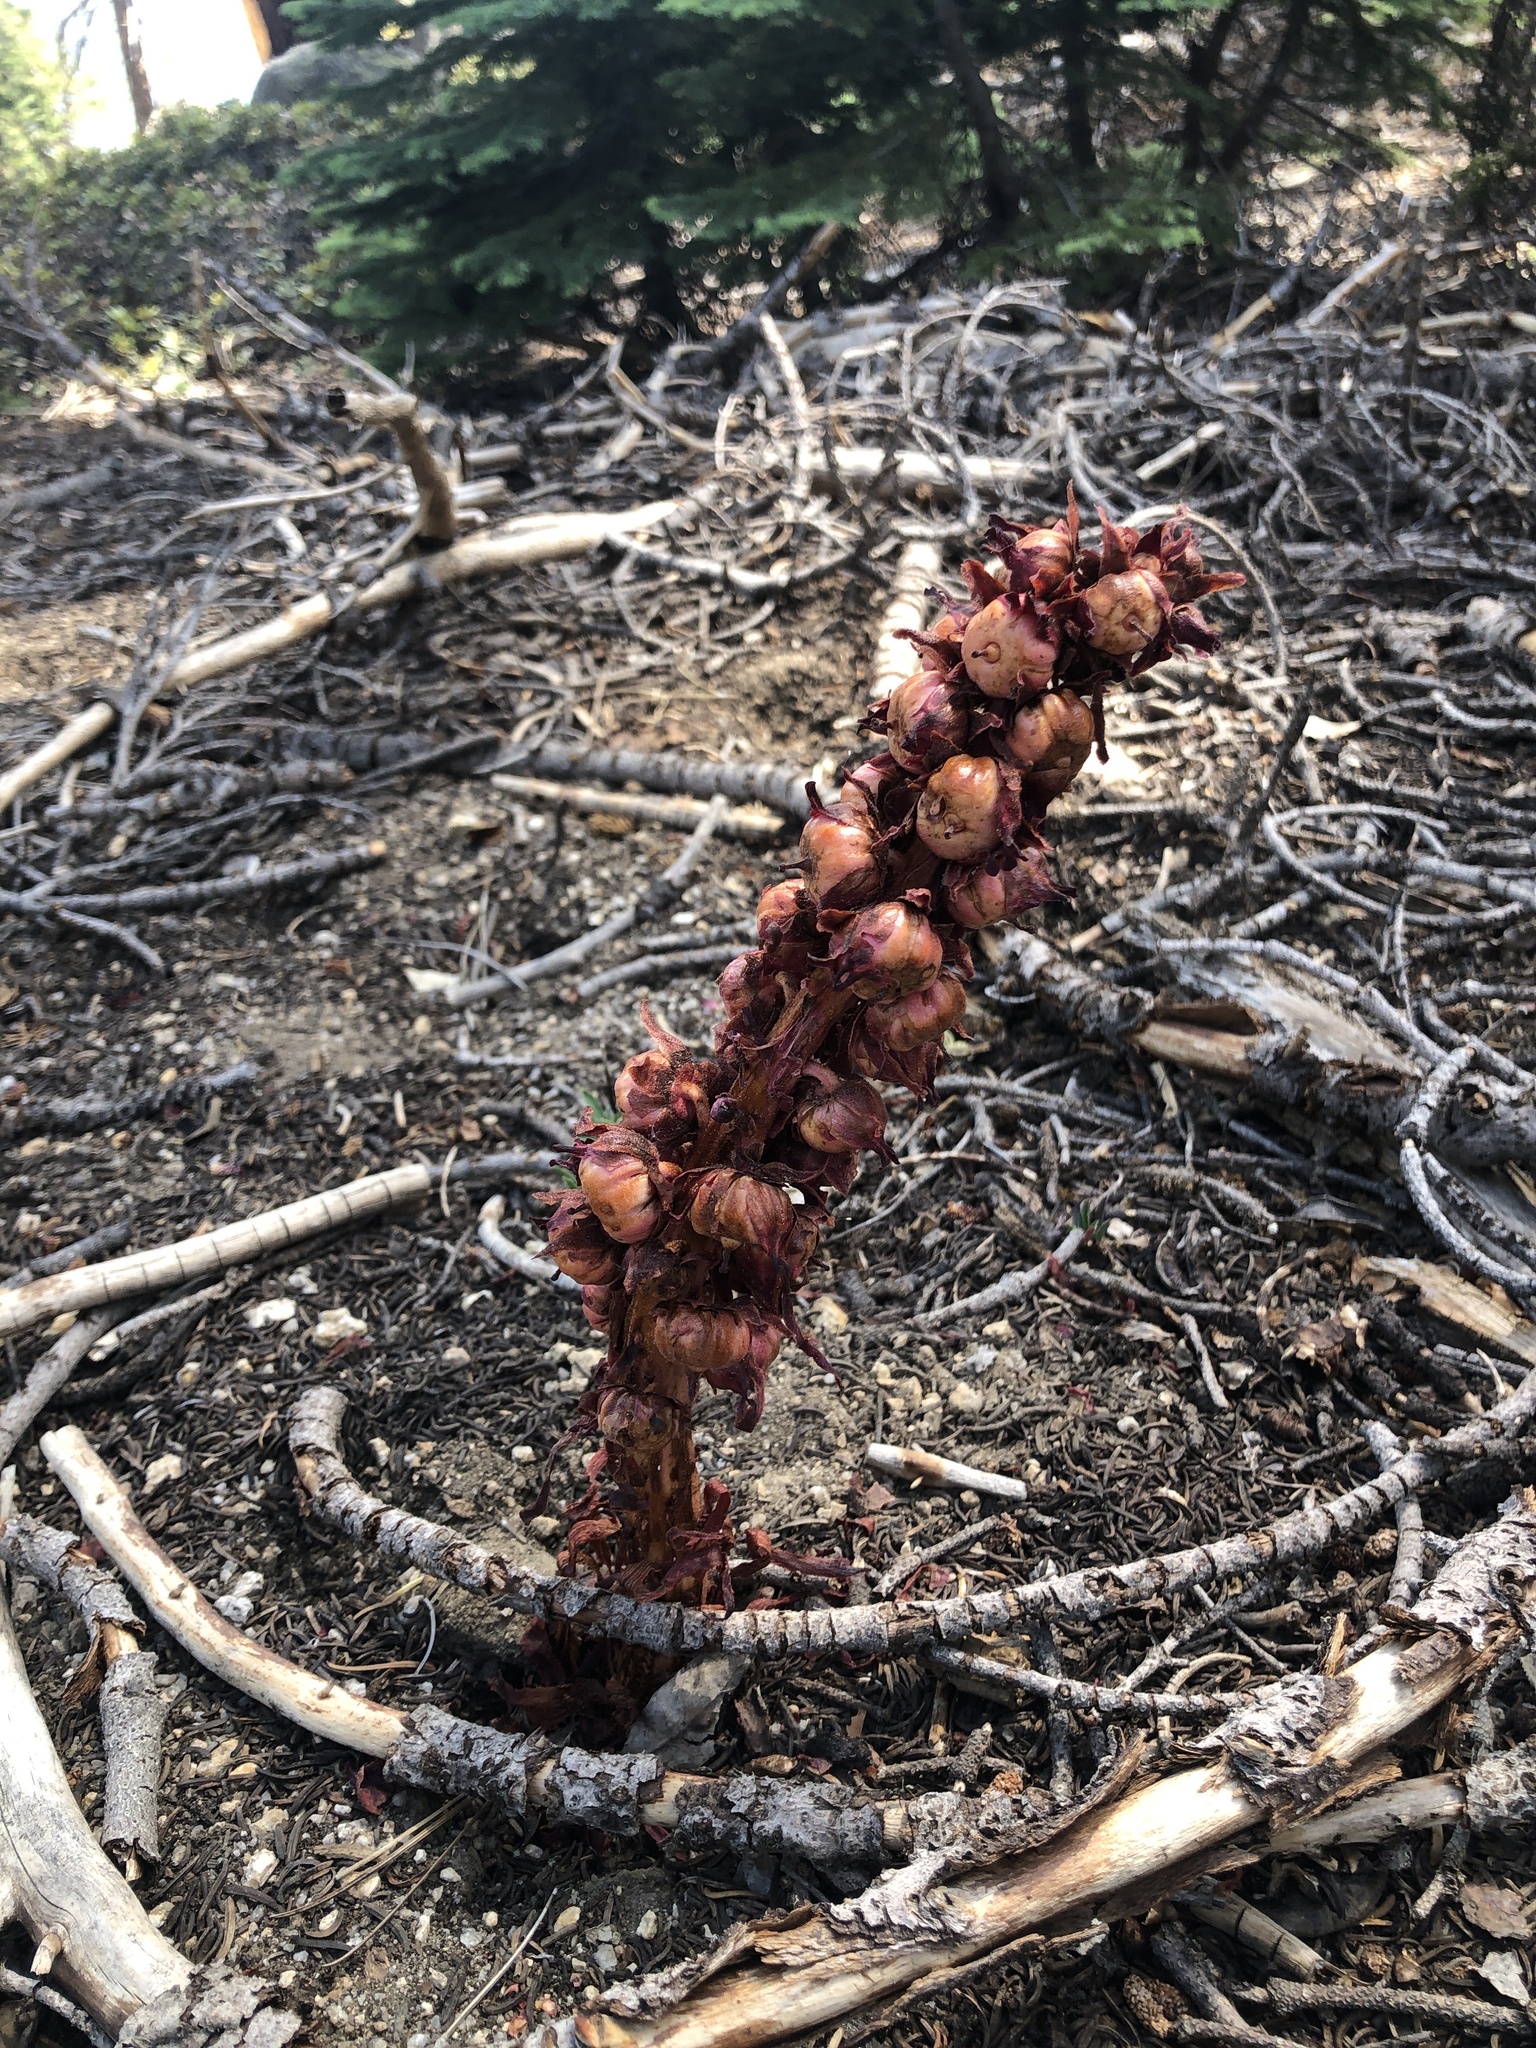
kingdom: Plantae
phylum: Tracheophyta
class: Magnoliopsida
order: Ericales
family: Ericaceae
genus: Sarcodes
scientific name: Sarcodes sanguinea
